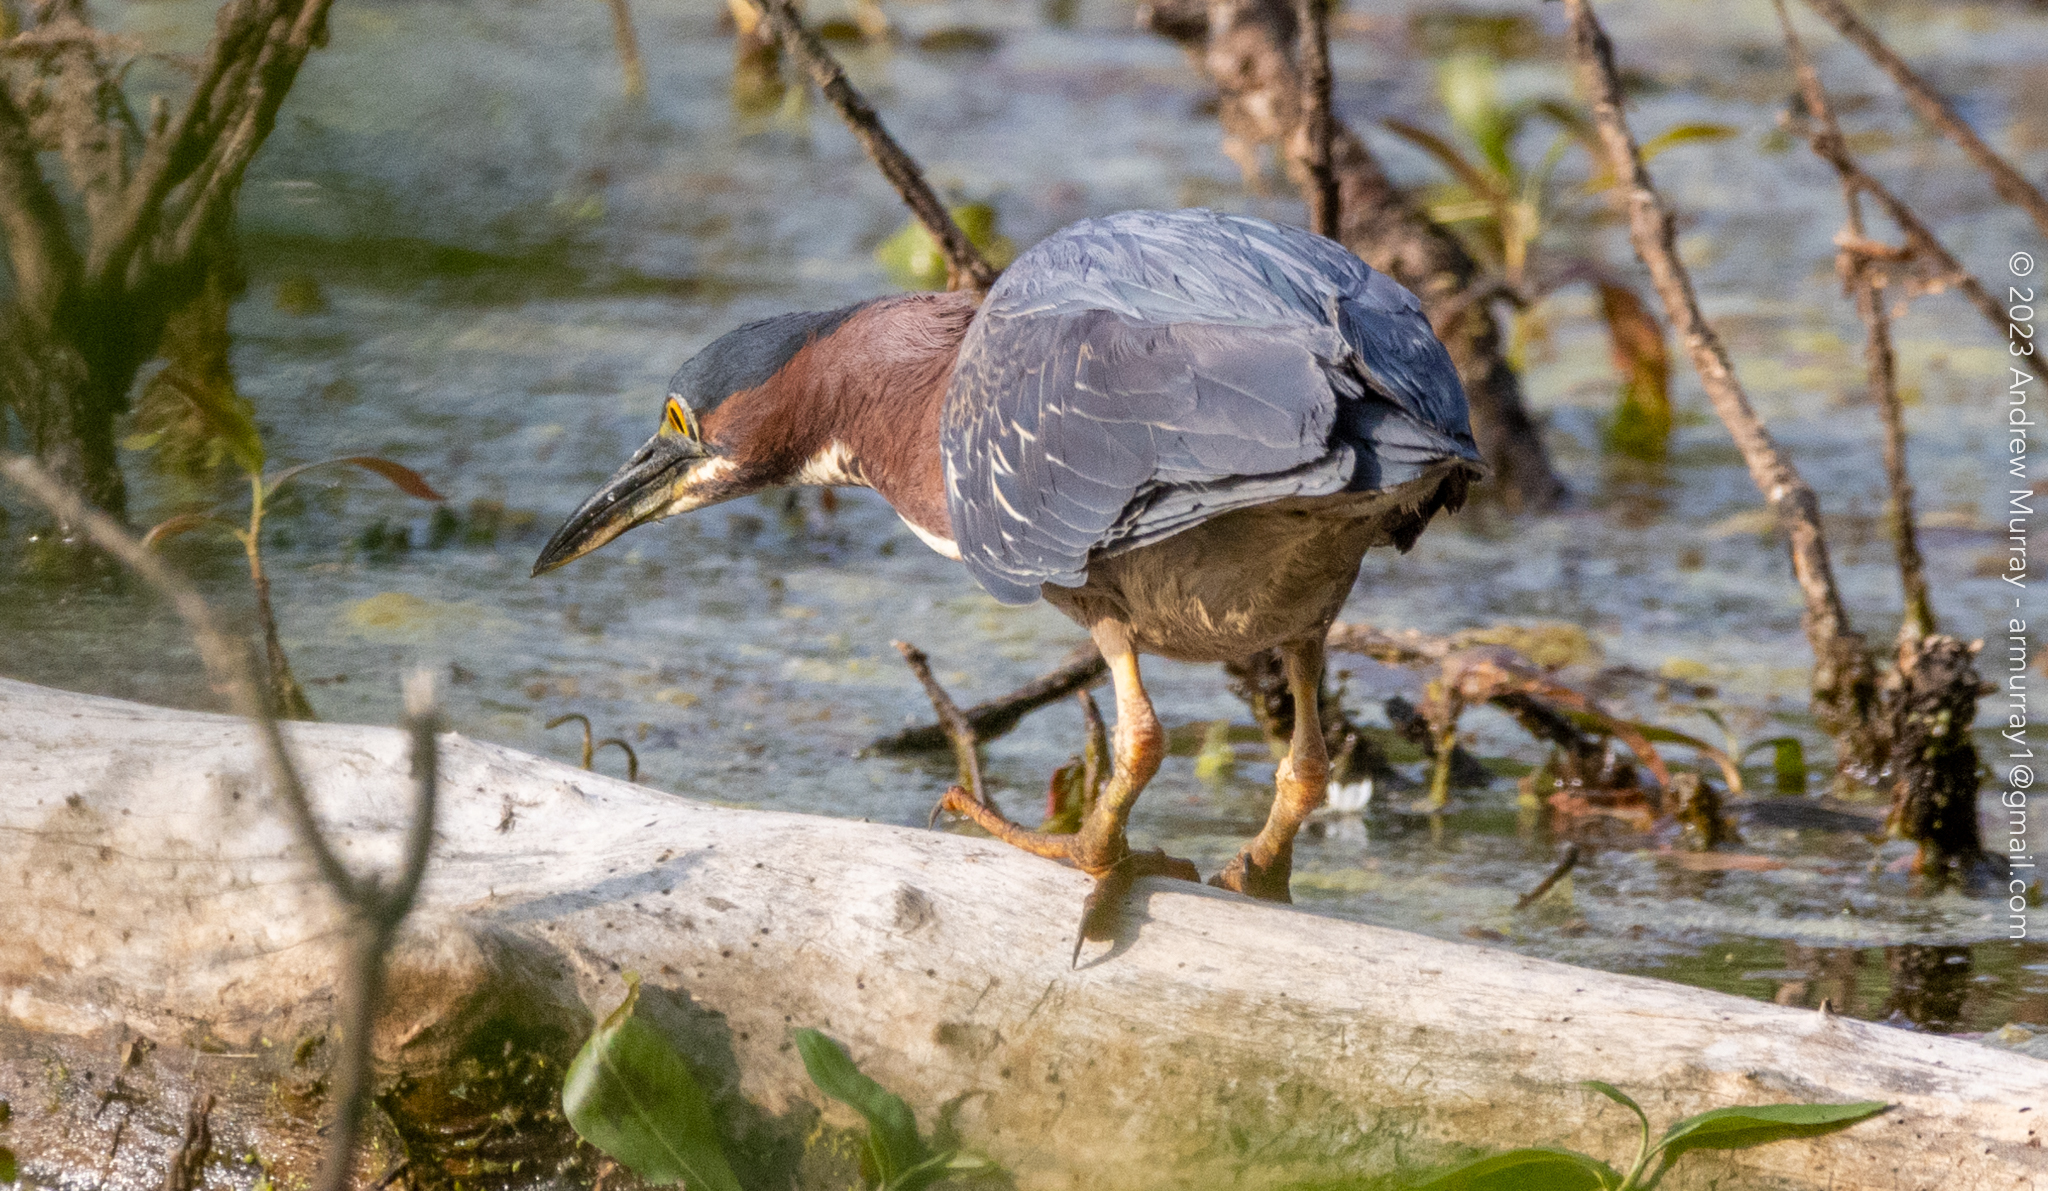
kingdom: Animalia
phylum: Chordata
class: Aves
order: Pelecaniformes
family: Ardeidae
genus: Butorides
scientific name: Butorides virescens
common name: Green heron
